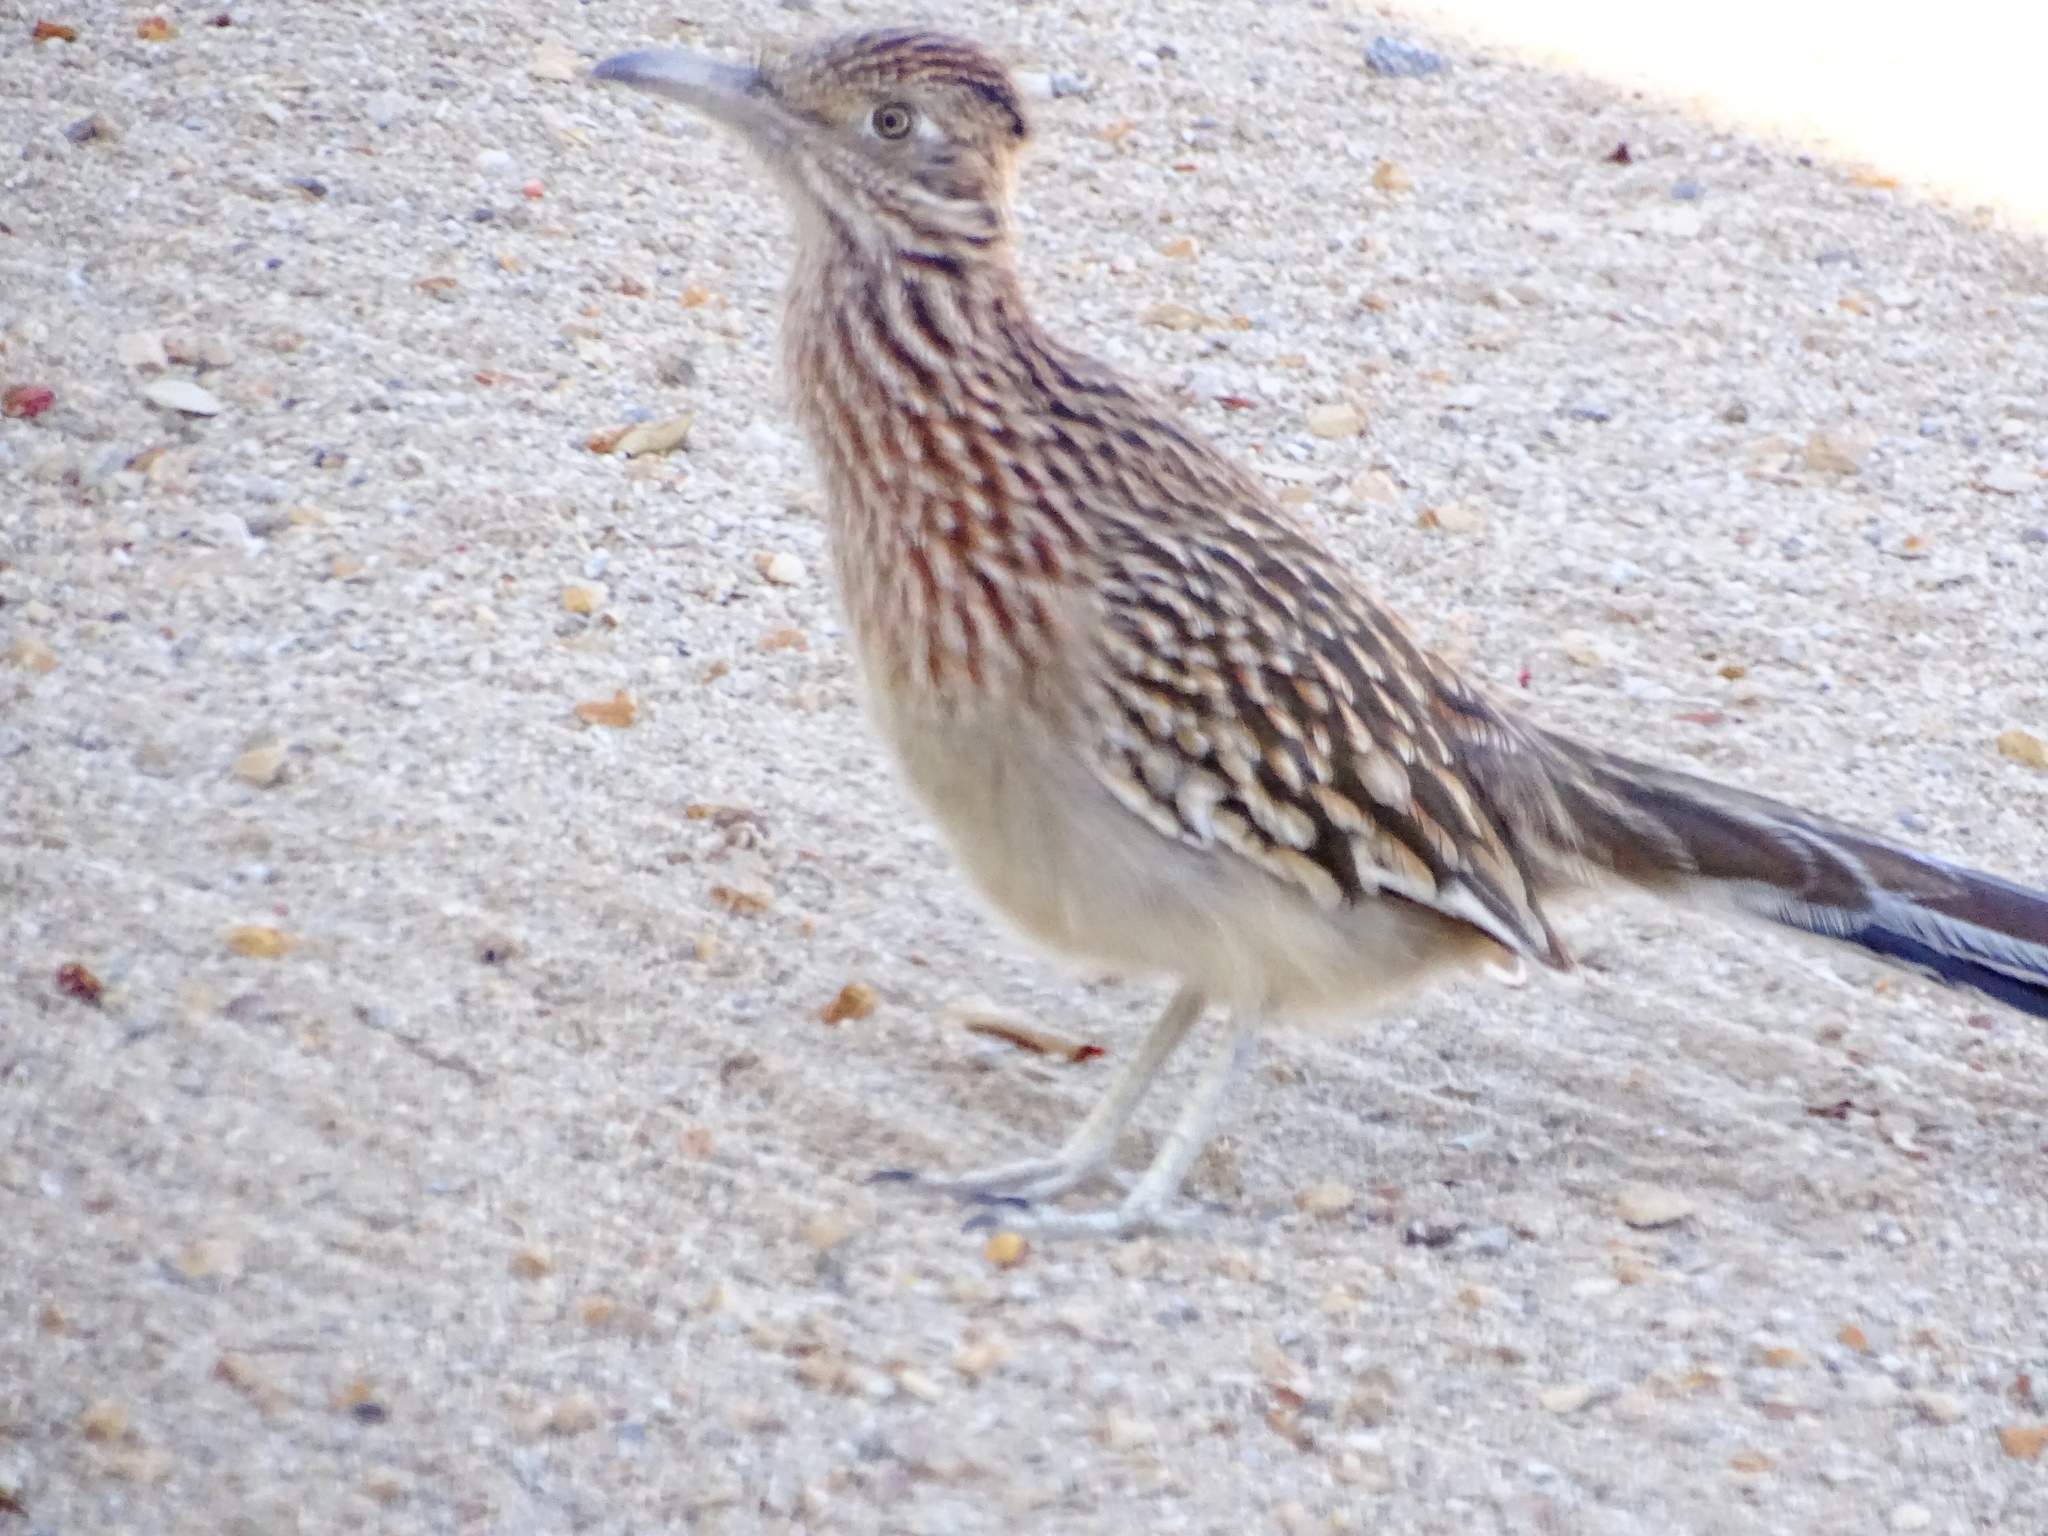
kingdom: Animalia
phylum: Chordata
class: Aves
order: Cuculiformes
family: Cuculidae
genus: Geococcyx
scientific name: Geococcyx californianus
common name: Greater roadrunner
